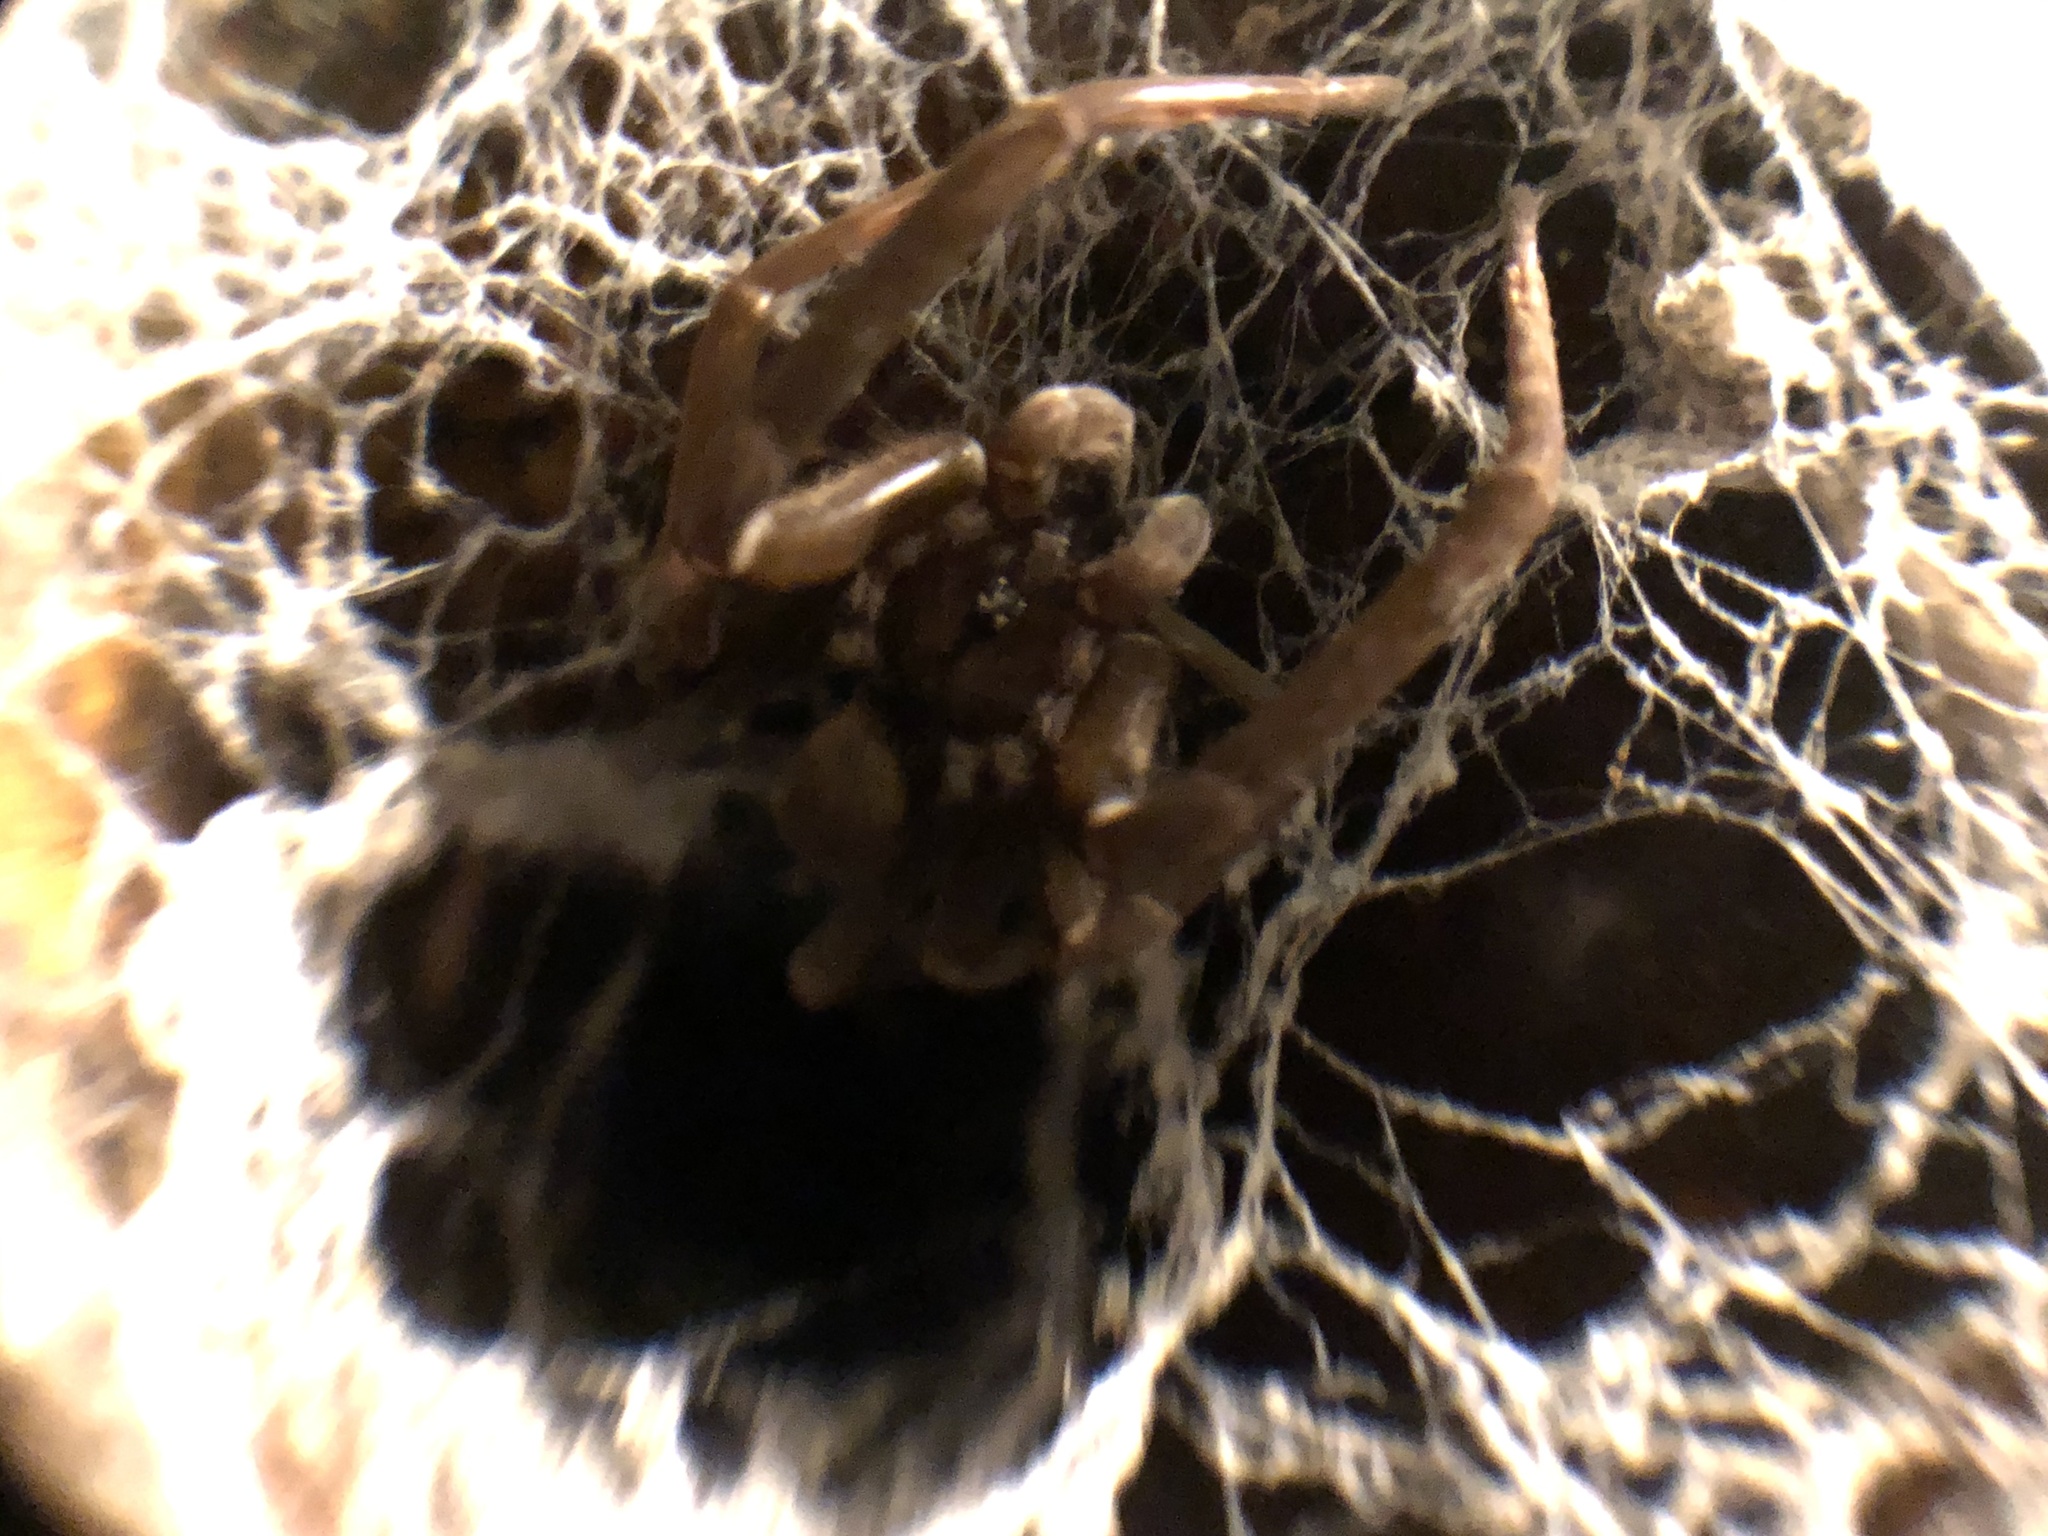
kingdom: Animalia
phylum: Arthropoda
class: Arachnida
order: Araneae
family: Filistatidae
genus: Kukulcania
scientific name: Kukulcania hibernalis
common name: Crevice weaver
